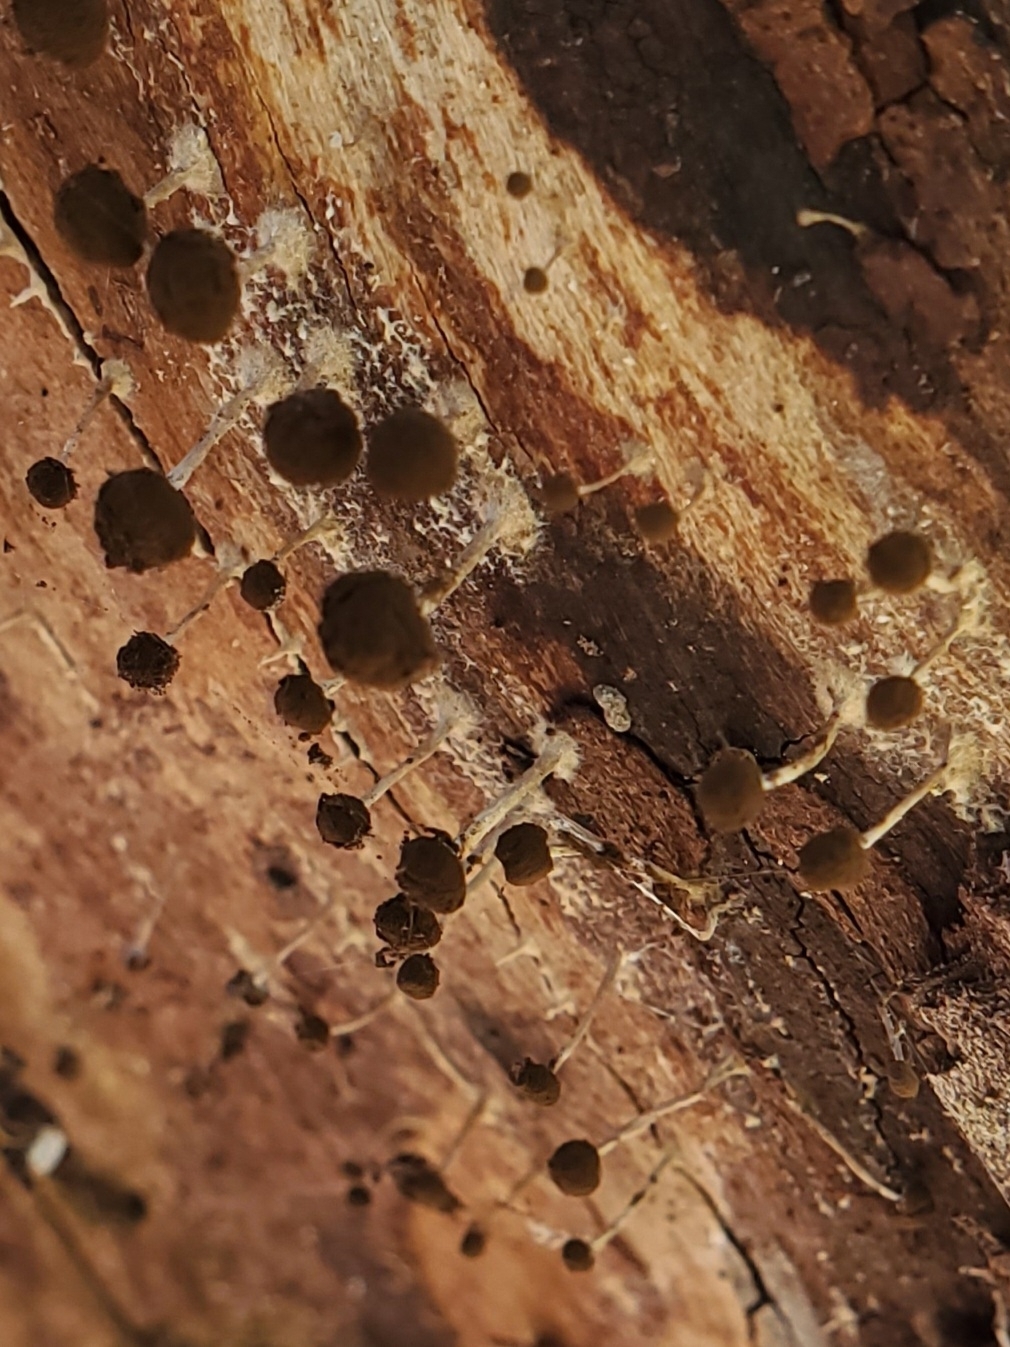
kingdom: Fungi
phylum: Basidiomycota
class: Atractiellomycetes
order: Atractiellales
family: Phleogenaceae
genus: Phleogena
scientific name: Phleogena faginea
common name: Fenugreek stalkball
